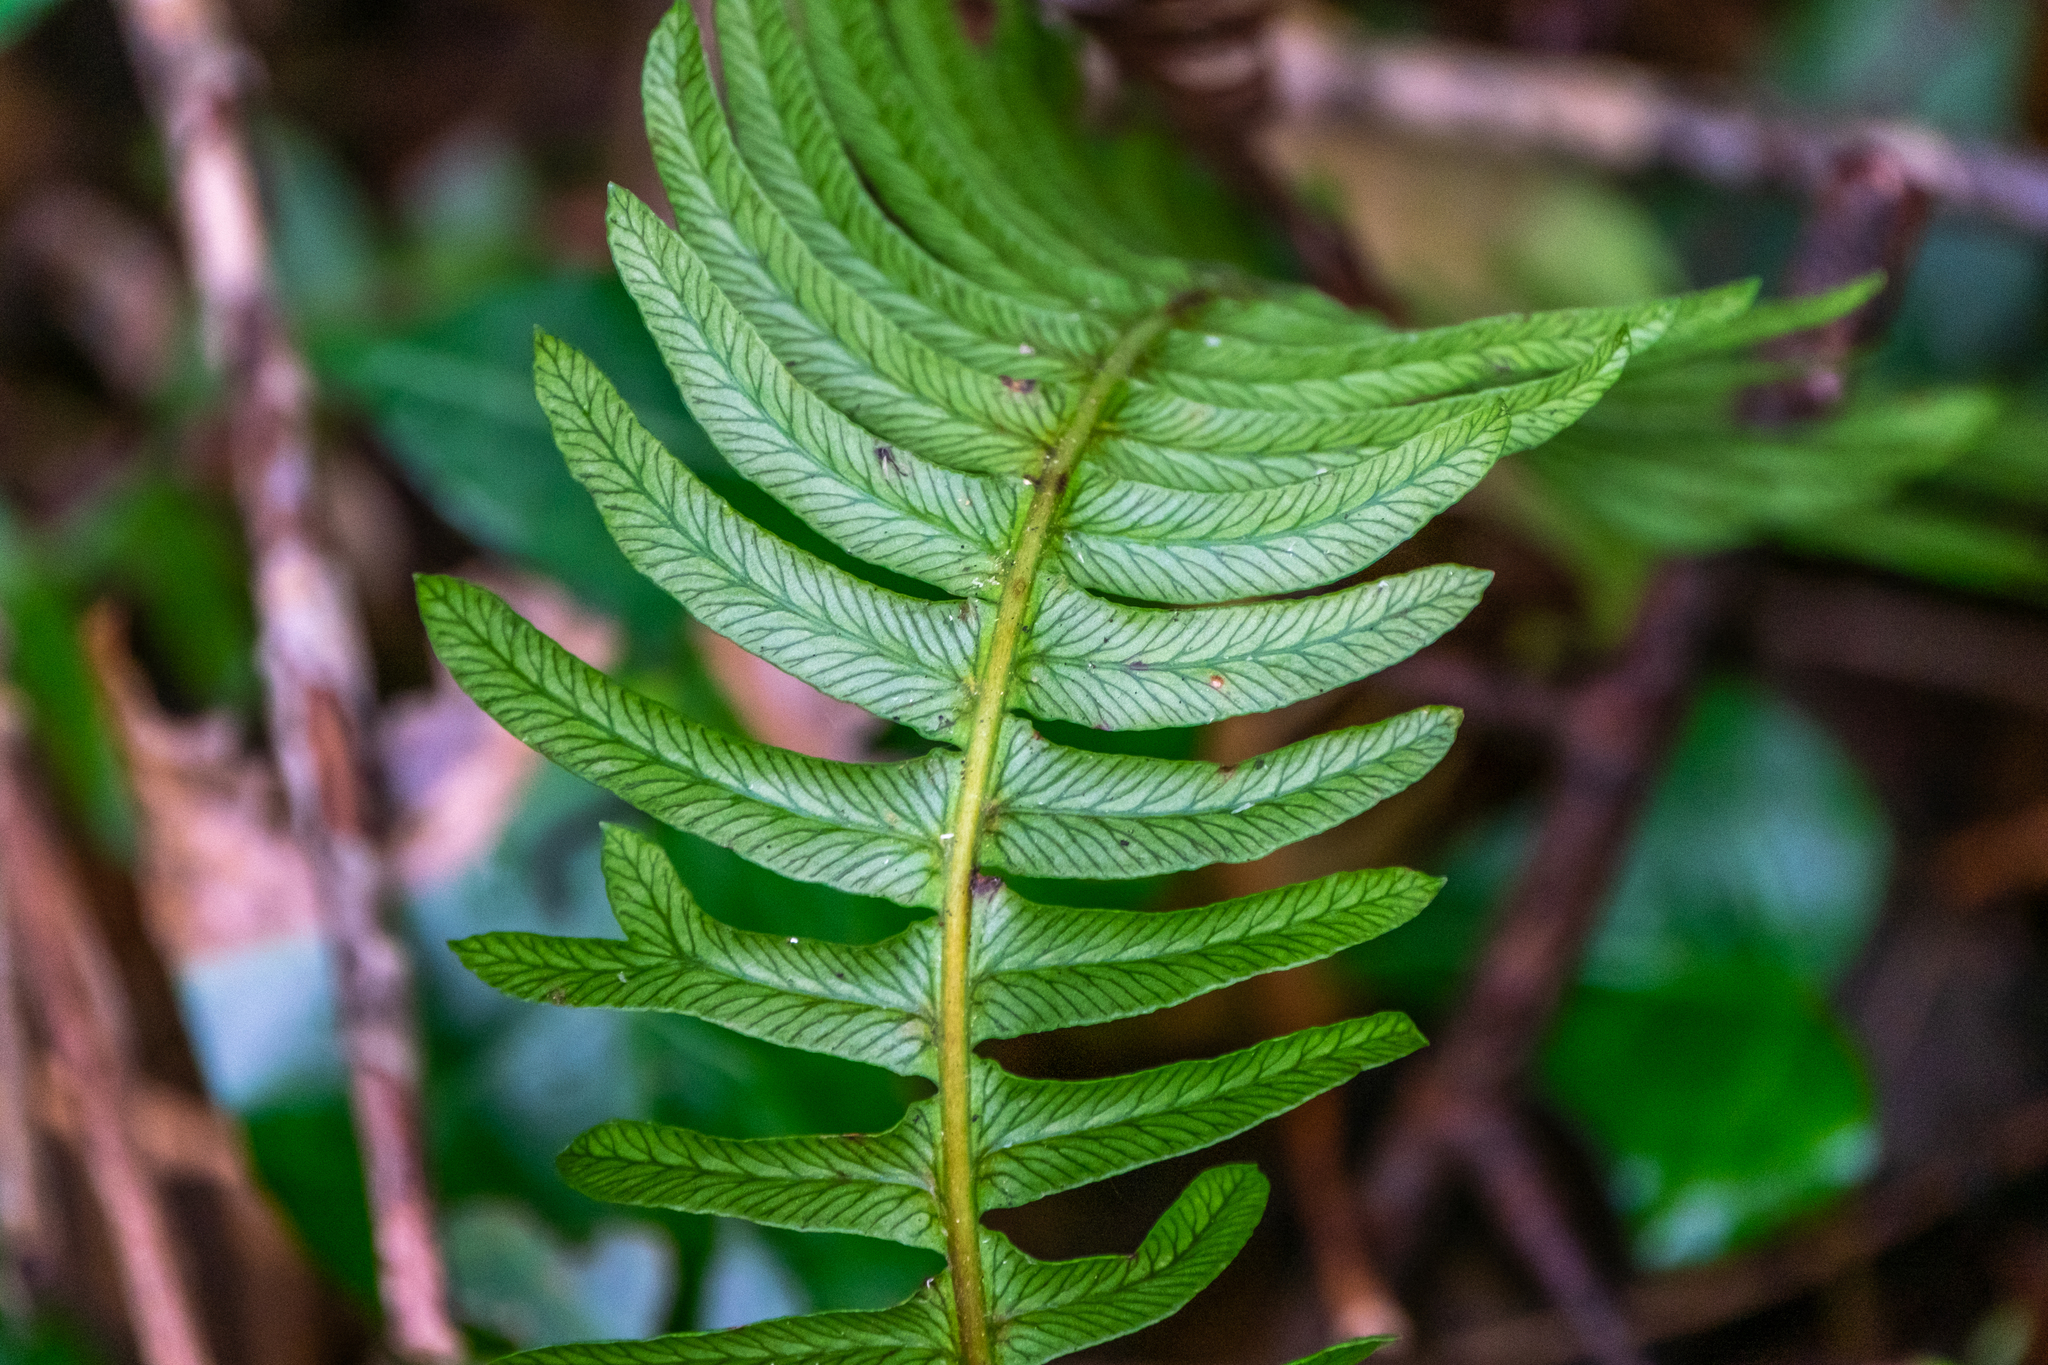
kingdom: Plantae
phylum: Tracheophyta
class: Polypodiopsida
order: Polypodiales
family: Blechnaceae
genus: Struthiopteris
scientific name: Struthiopteris spicant
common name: Deer fern
